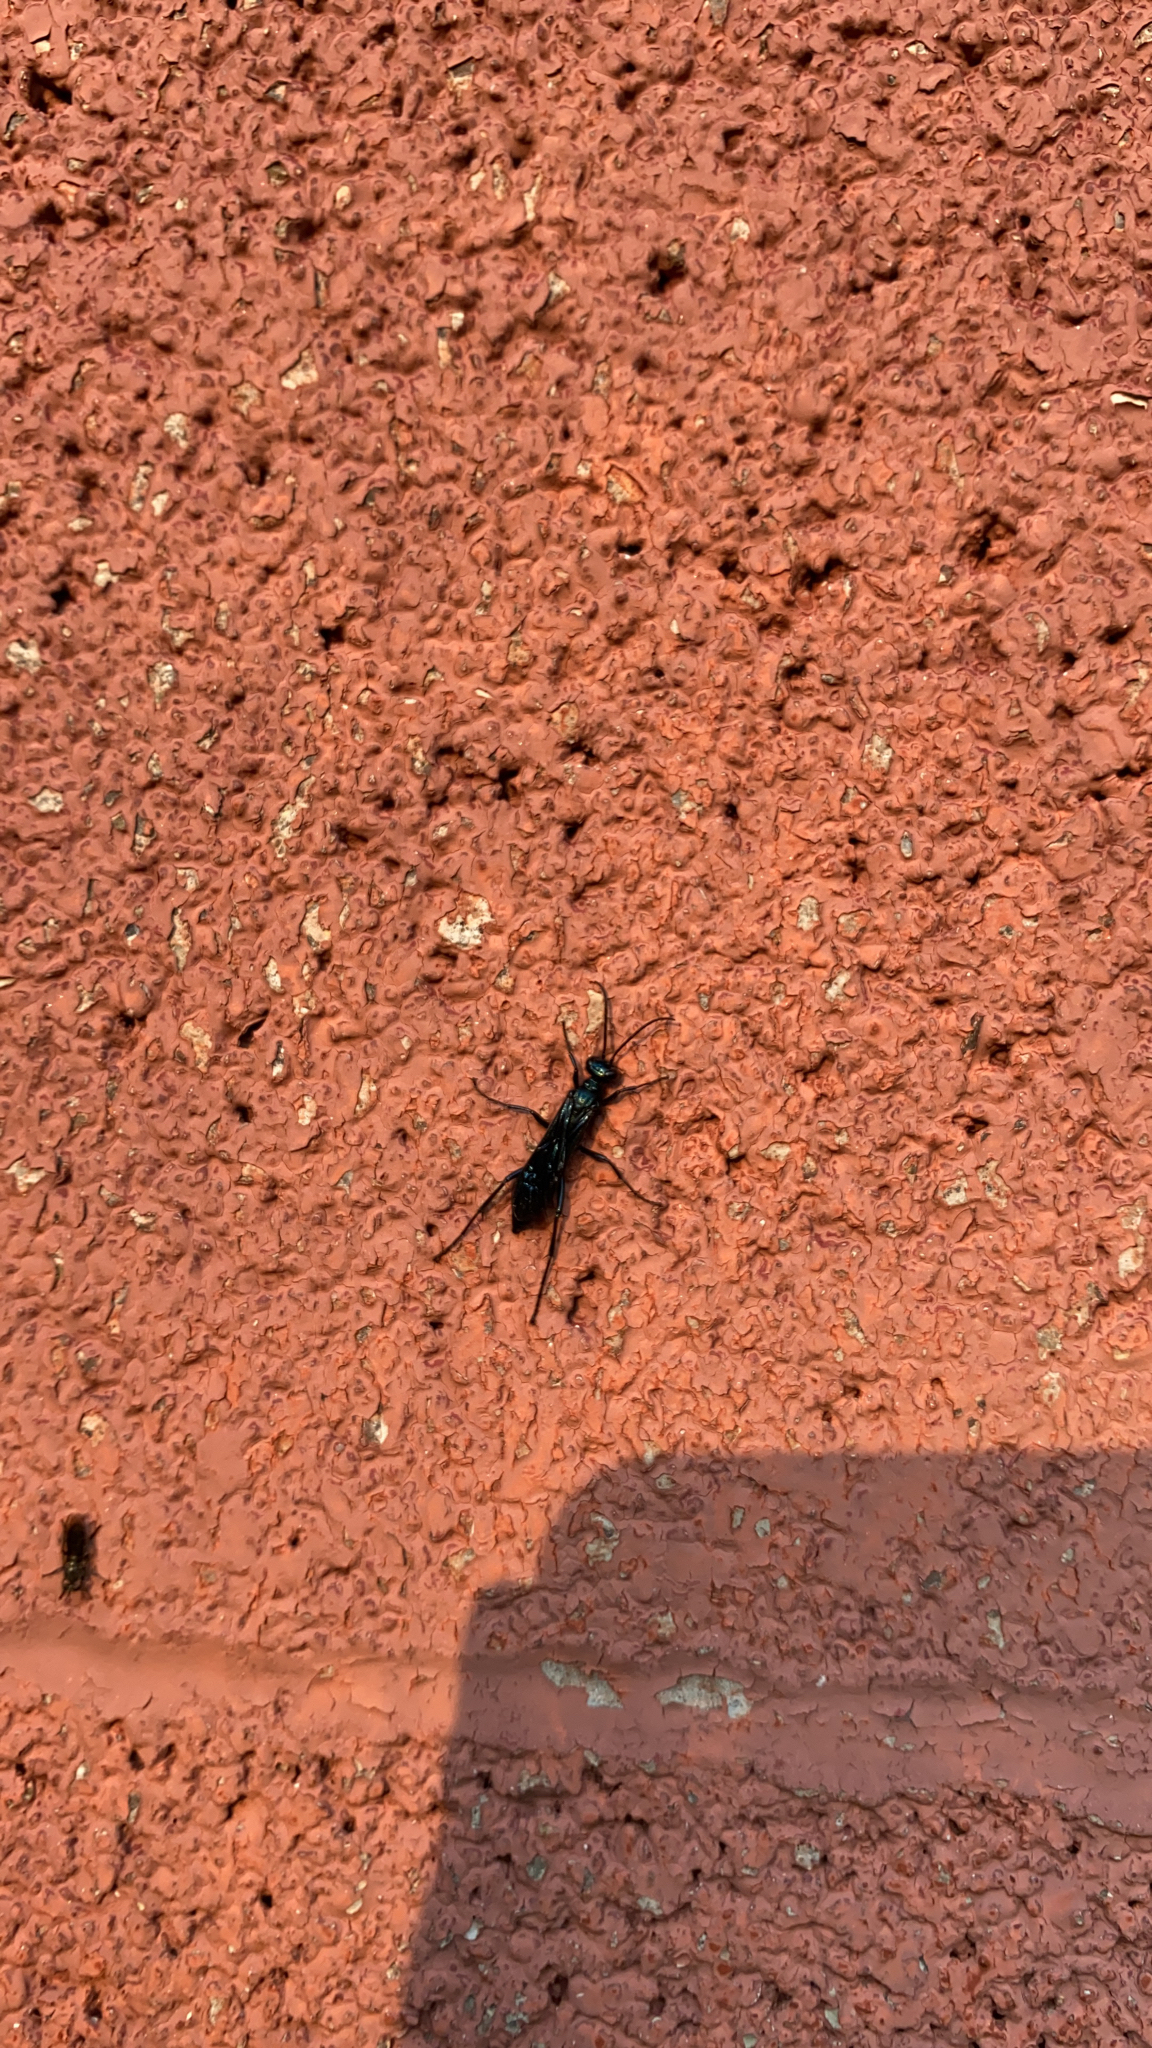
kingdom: Animalia
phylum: Arthropoda
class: Insecta
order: Hymenoptera
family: Sphecidae
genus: Chalybion
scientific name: Chalybion californicum
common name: Mud dauber
